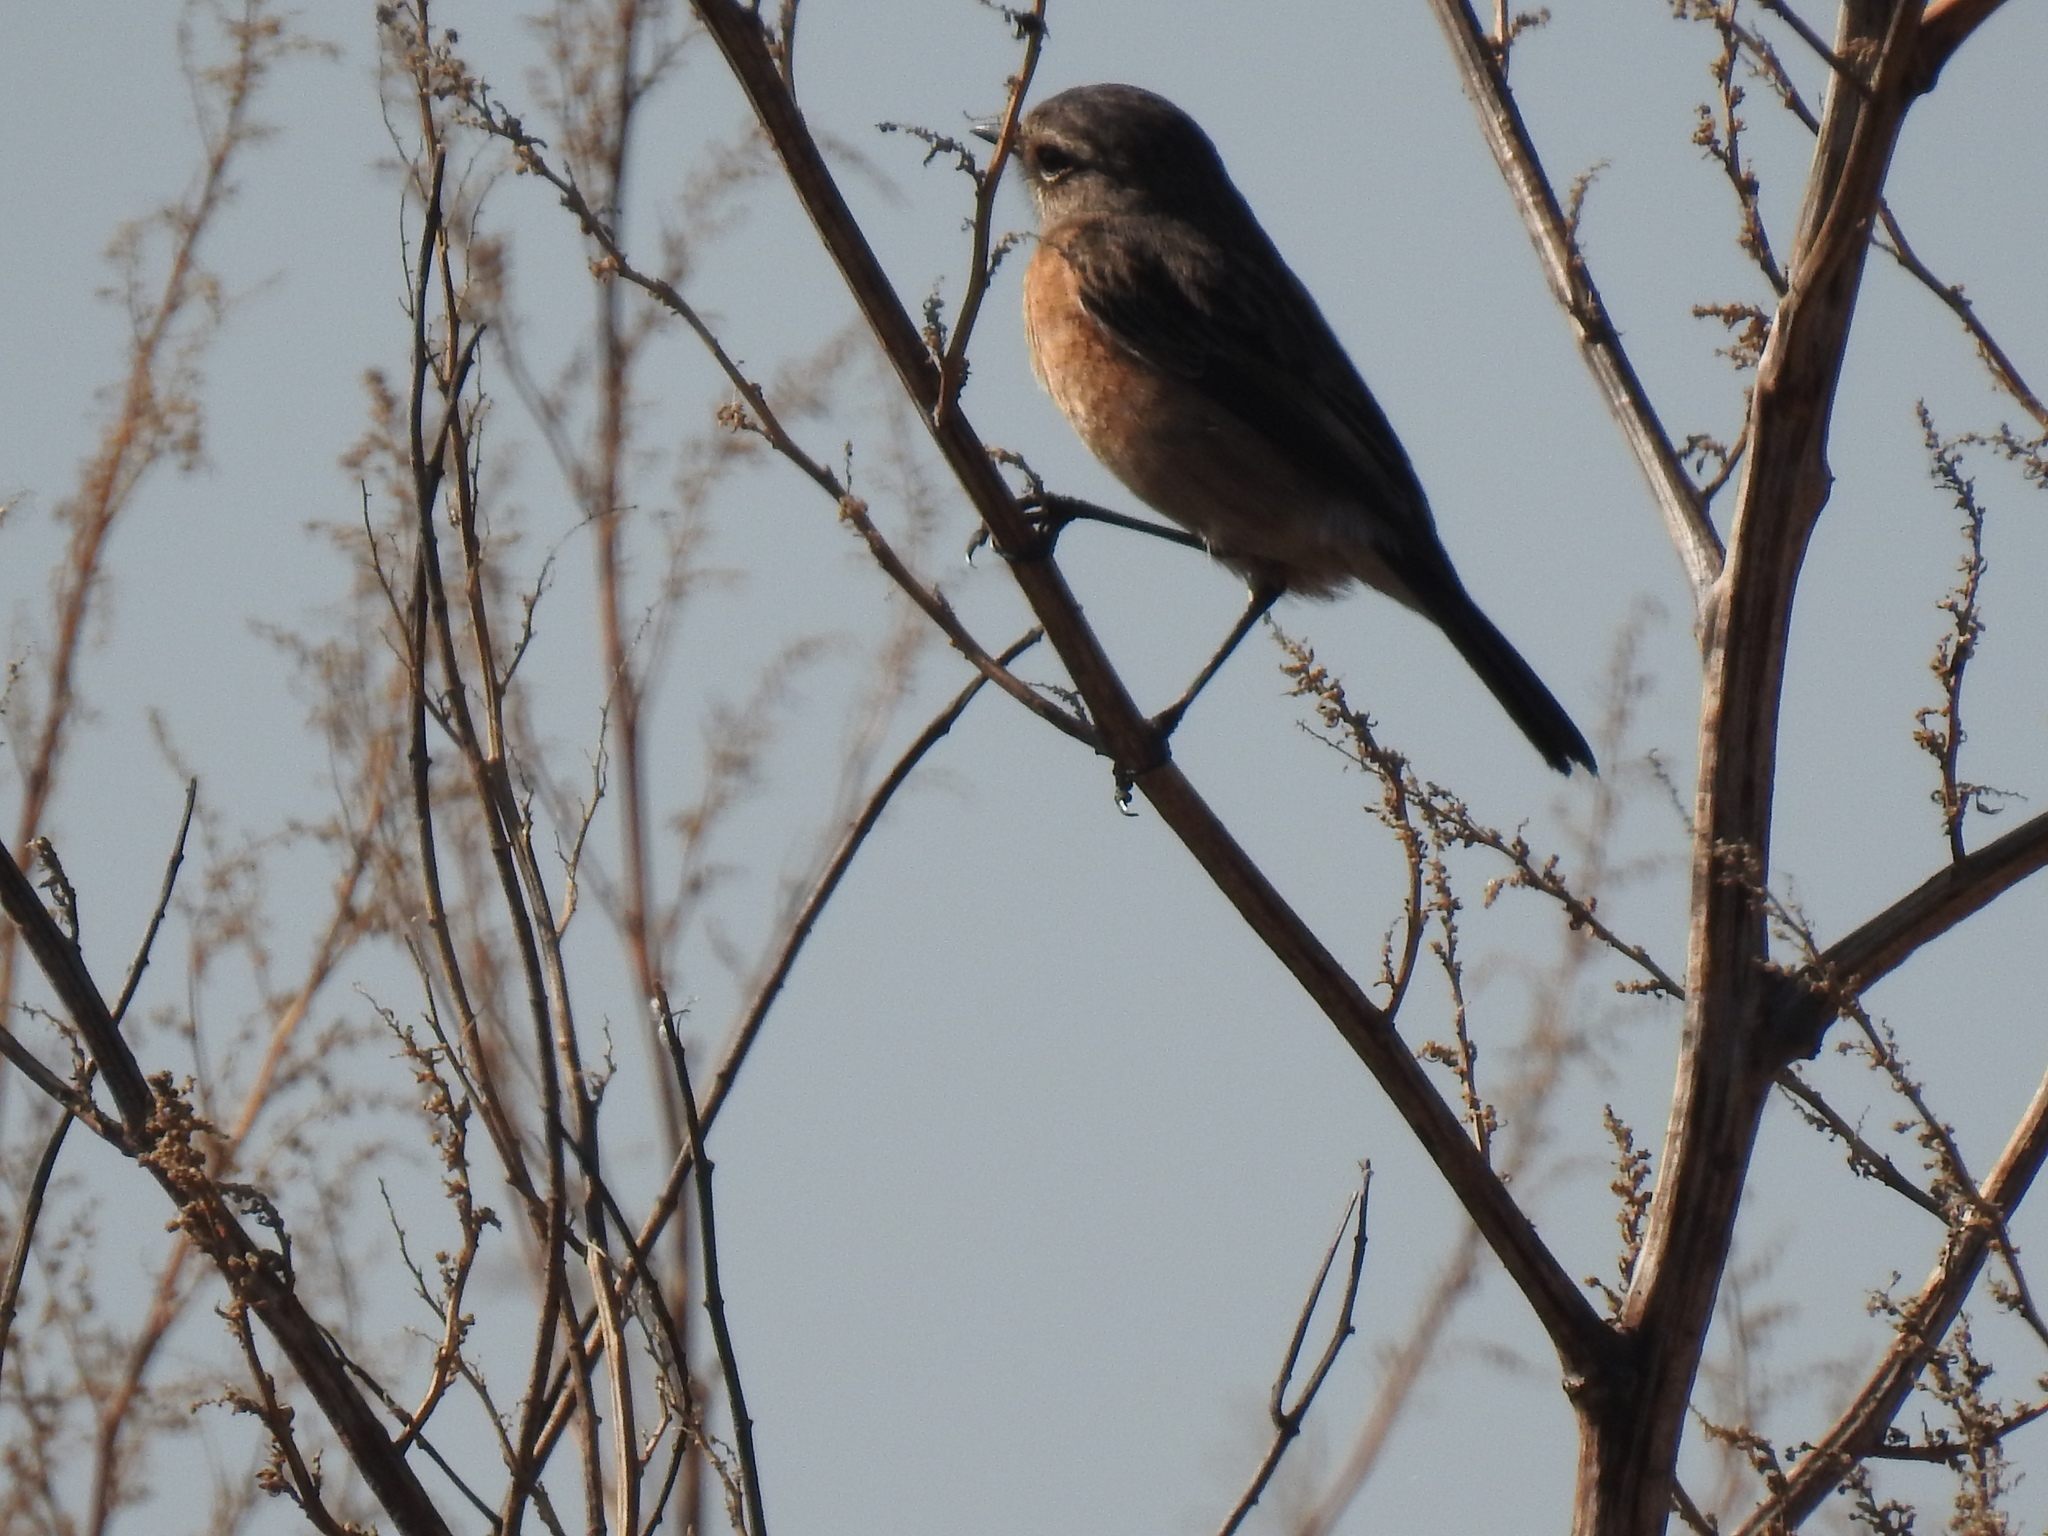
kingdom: Animalia
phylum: Chordata
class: Aves
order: Passeriformes
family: Muscicapidae
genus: Saxicola
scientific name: Saxicola torquatus
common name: African stonechat
